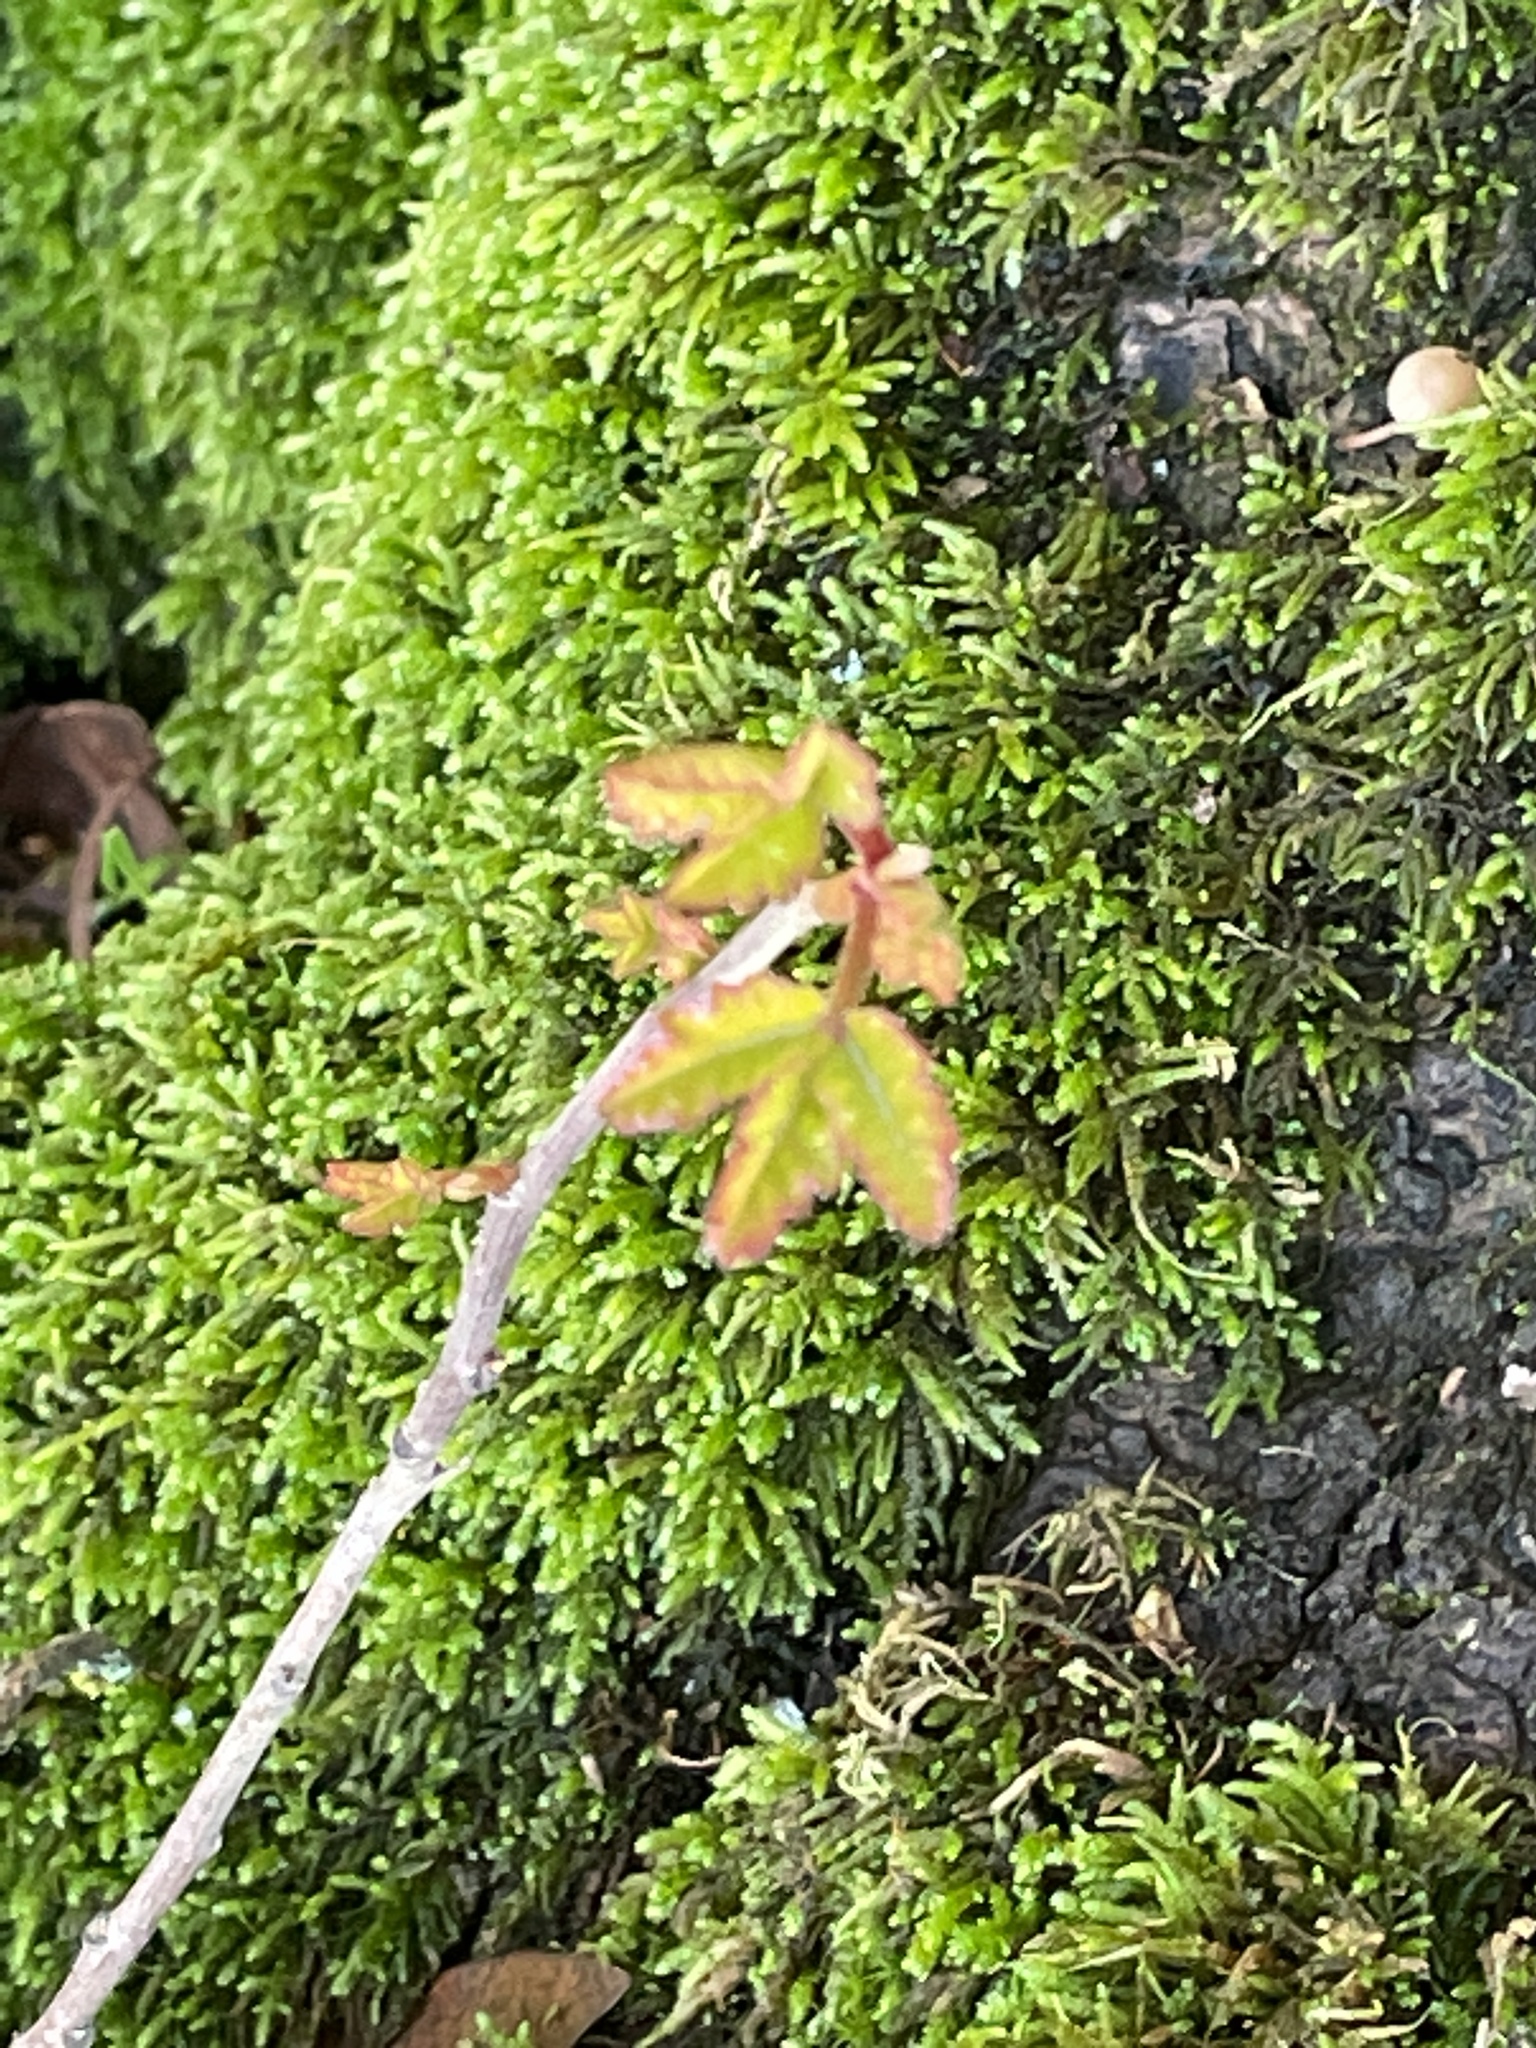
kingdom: Plantae
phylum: Tracheophyta
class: Magnoliopsida
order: Sapindales
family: Anacardiaceae
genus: Toxicodendron
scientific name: Toxicodendron diversilobum
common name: Pacific poison-oak
